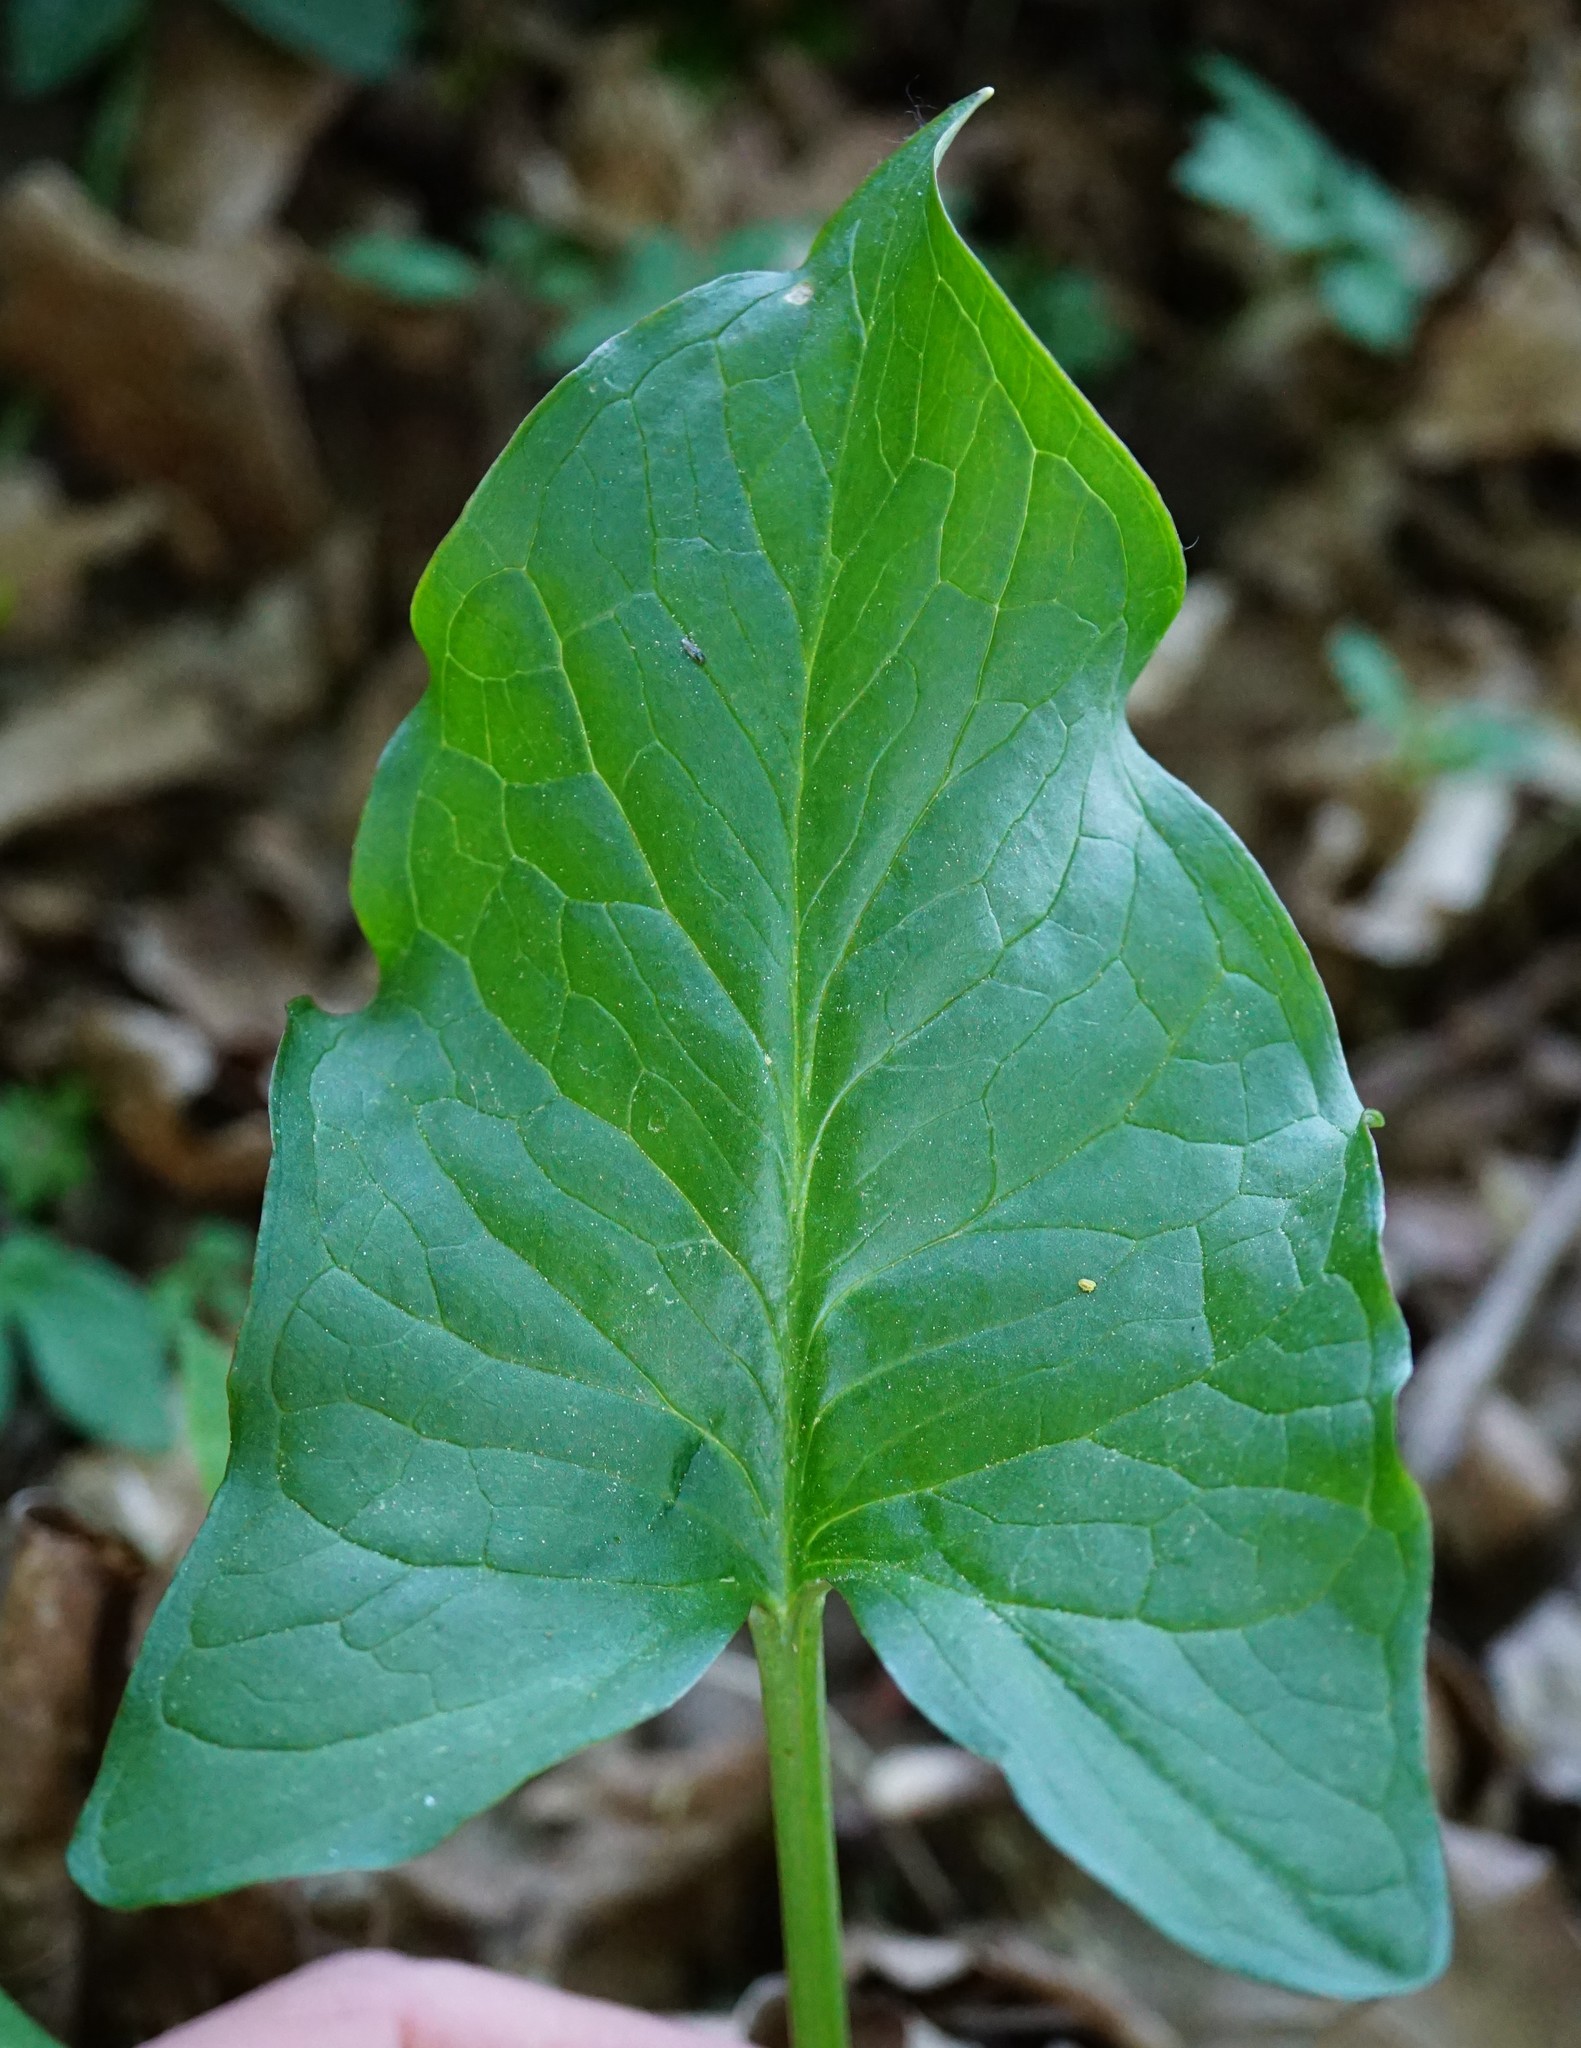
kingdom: Plantae
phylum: Tracheophyta
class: Liliopsida
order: Alismatales
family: Araceae
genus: Arum
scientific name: Arum cylindraceum
